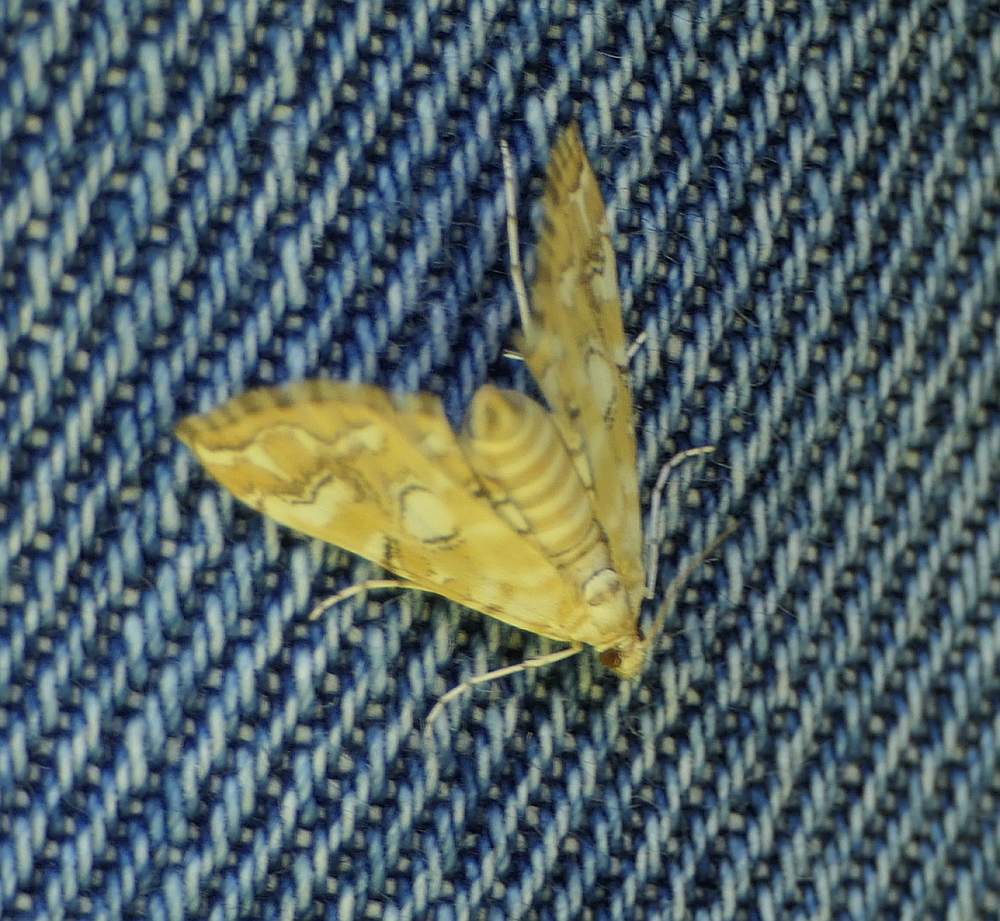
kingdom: Animalia
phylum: Arthropoda
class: Insecta
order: Lepidoptera
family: Crambidae
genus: Elophila
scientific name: Elophila icciusalis
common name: Pondside pyralid moth
